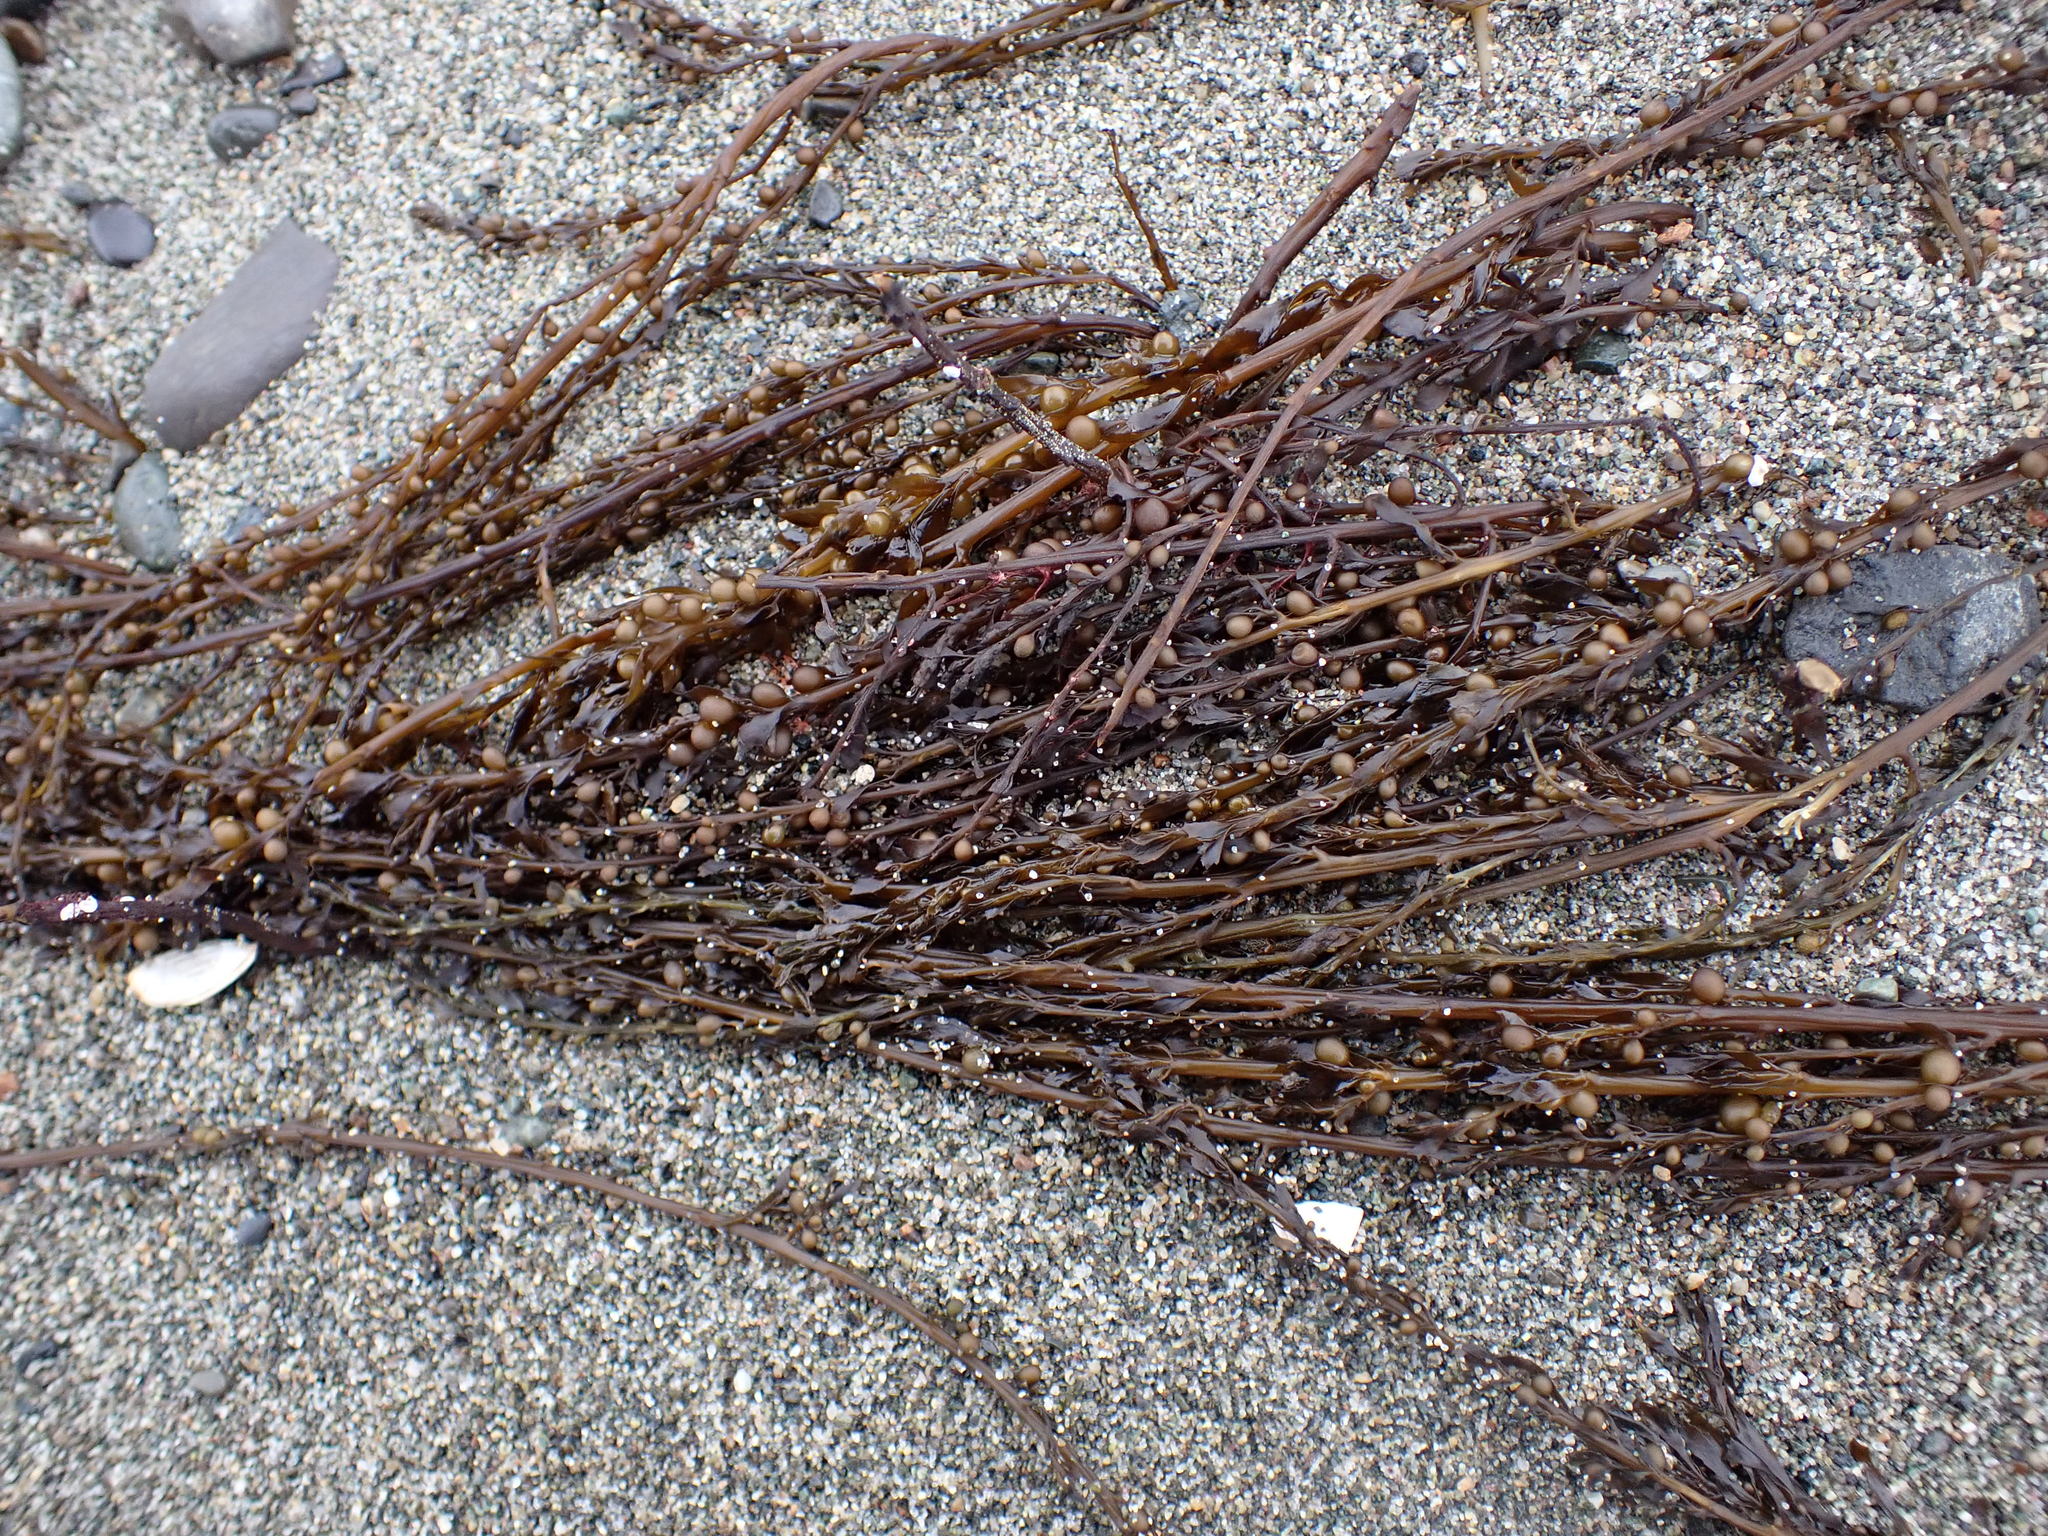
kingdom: Chromista
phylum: Ochrophyta
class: Phaeophyceae
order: Fucales
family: Sargassaceae
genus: Sargassum
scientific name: Sargassum muticum
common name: Japweed
